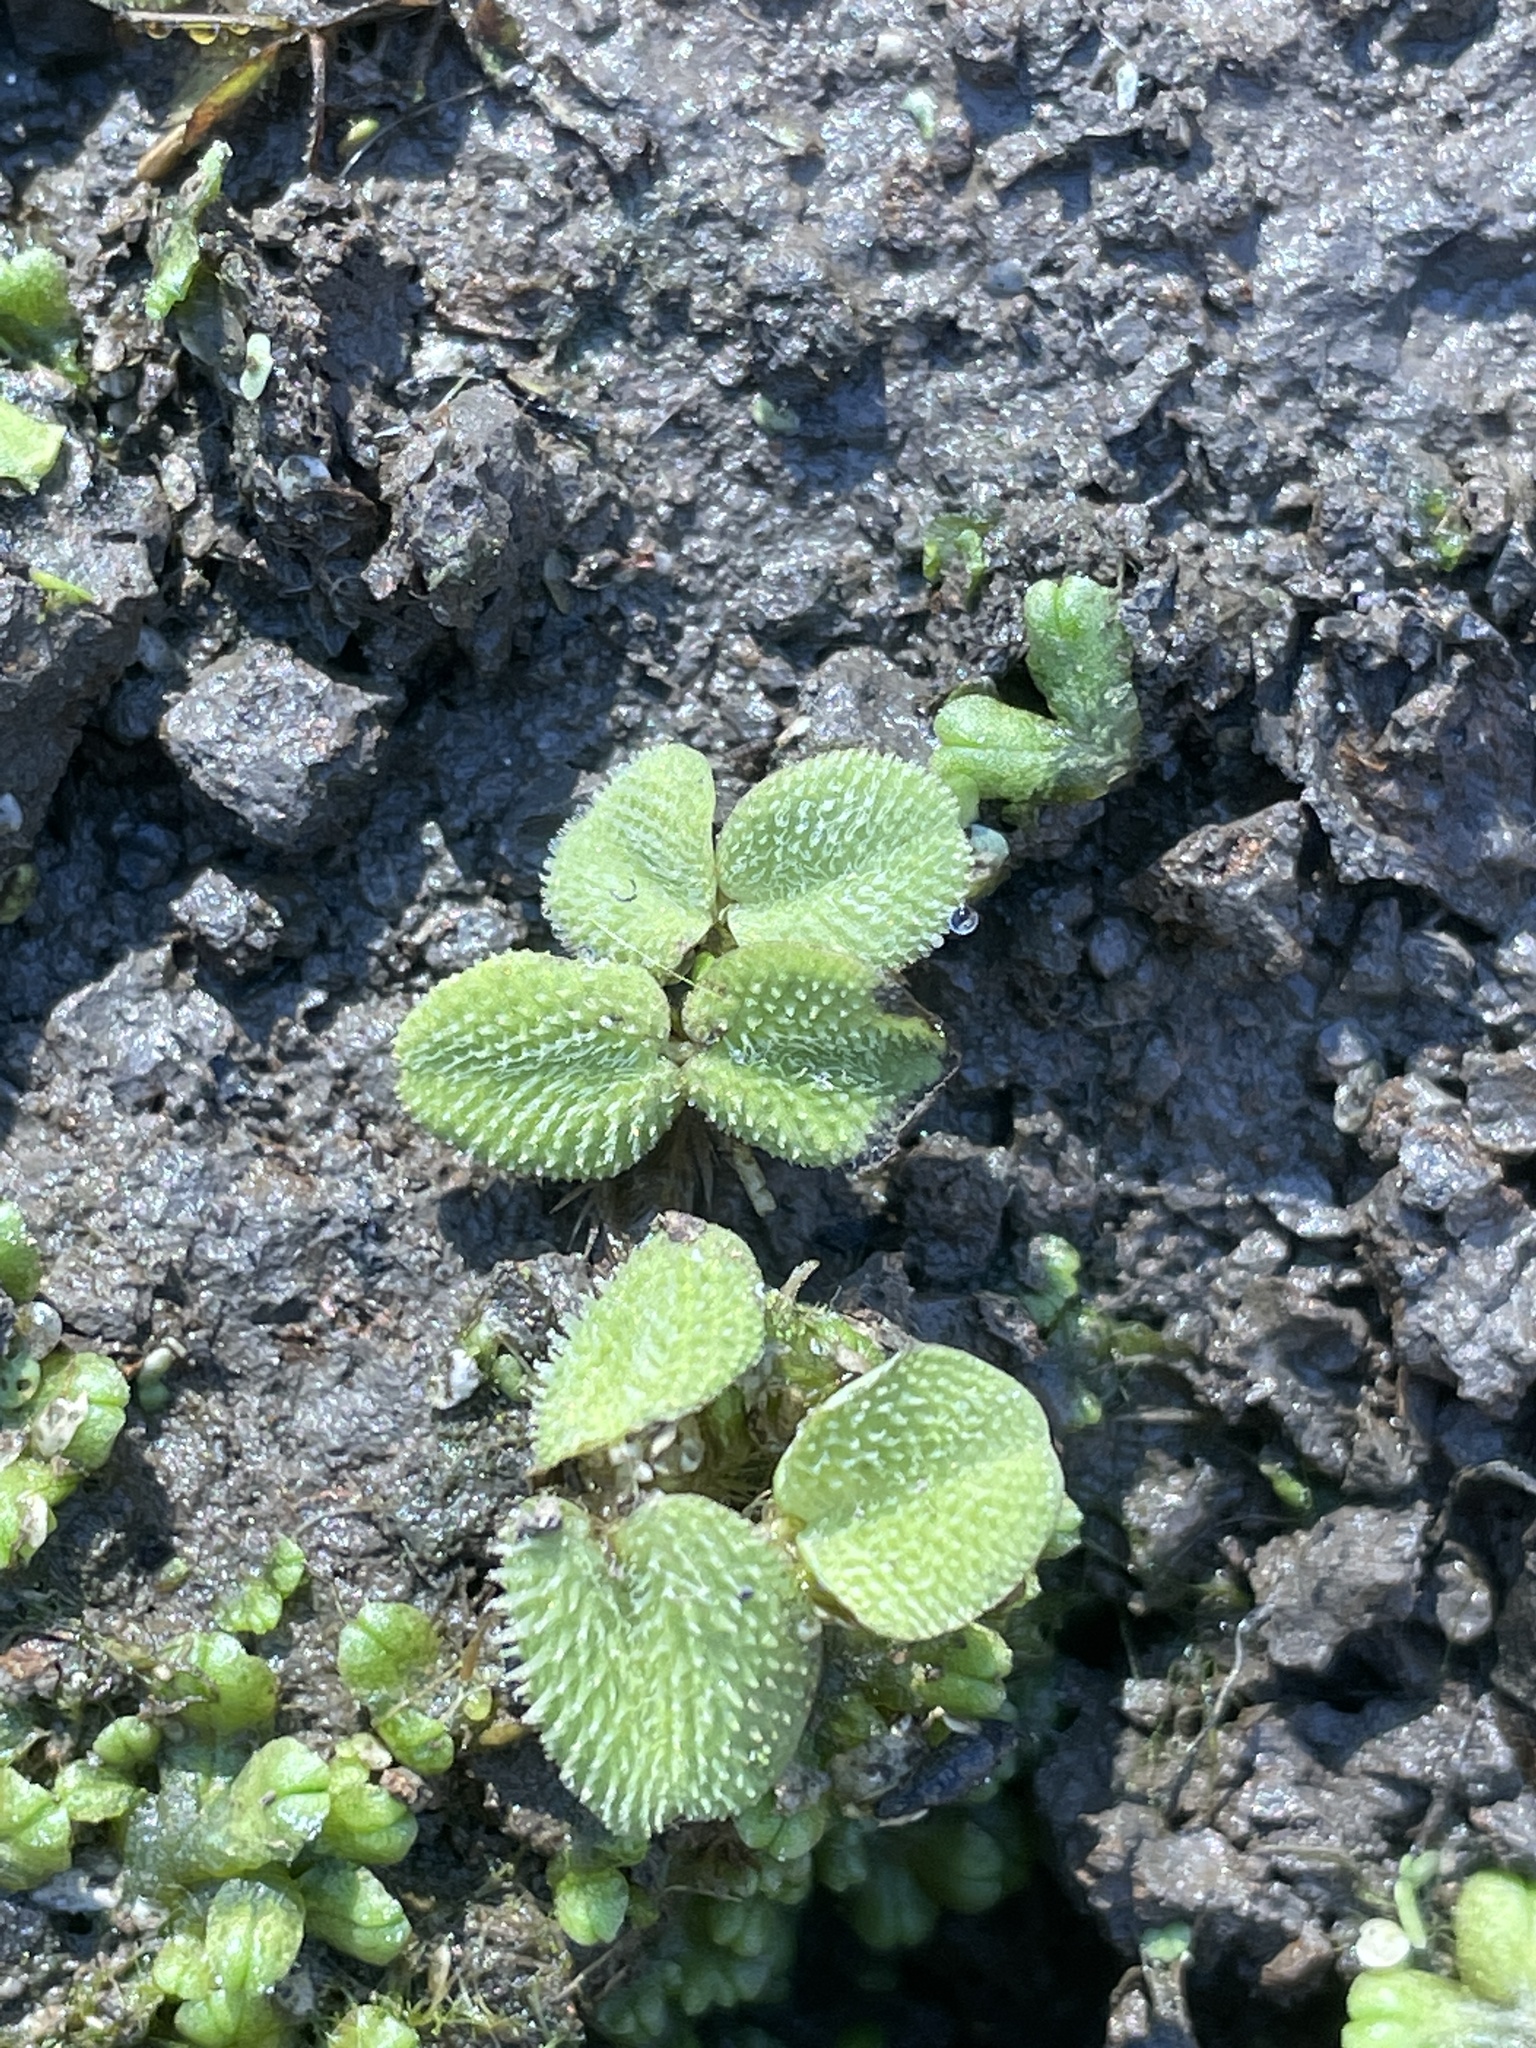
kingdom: Plantae
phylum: Tracheophyta
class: Polypodiopsida
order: Salviniales
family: Salviniaceae
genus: Salvinia
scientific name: Salvinia minima
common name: Water spangles
